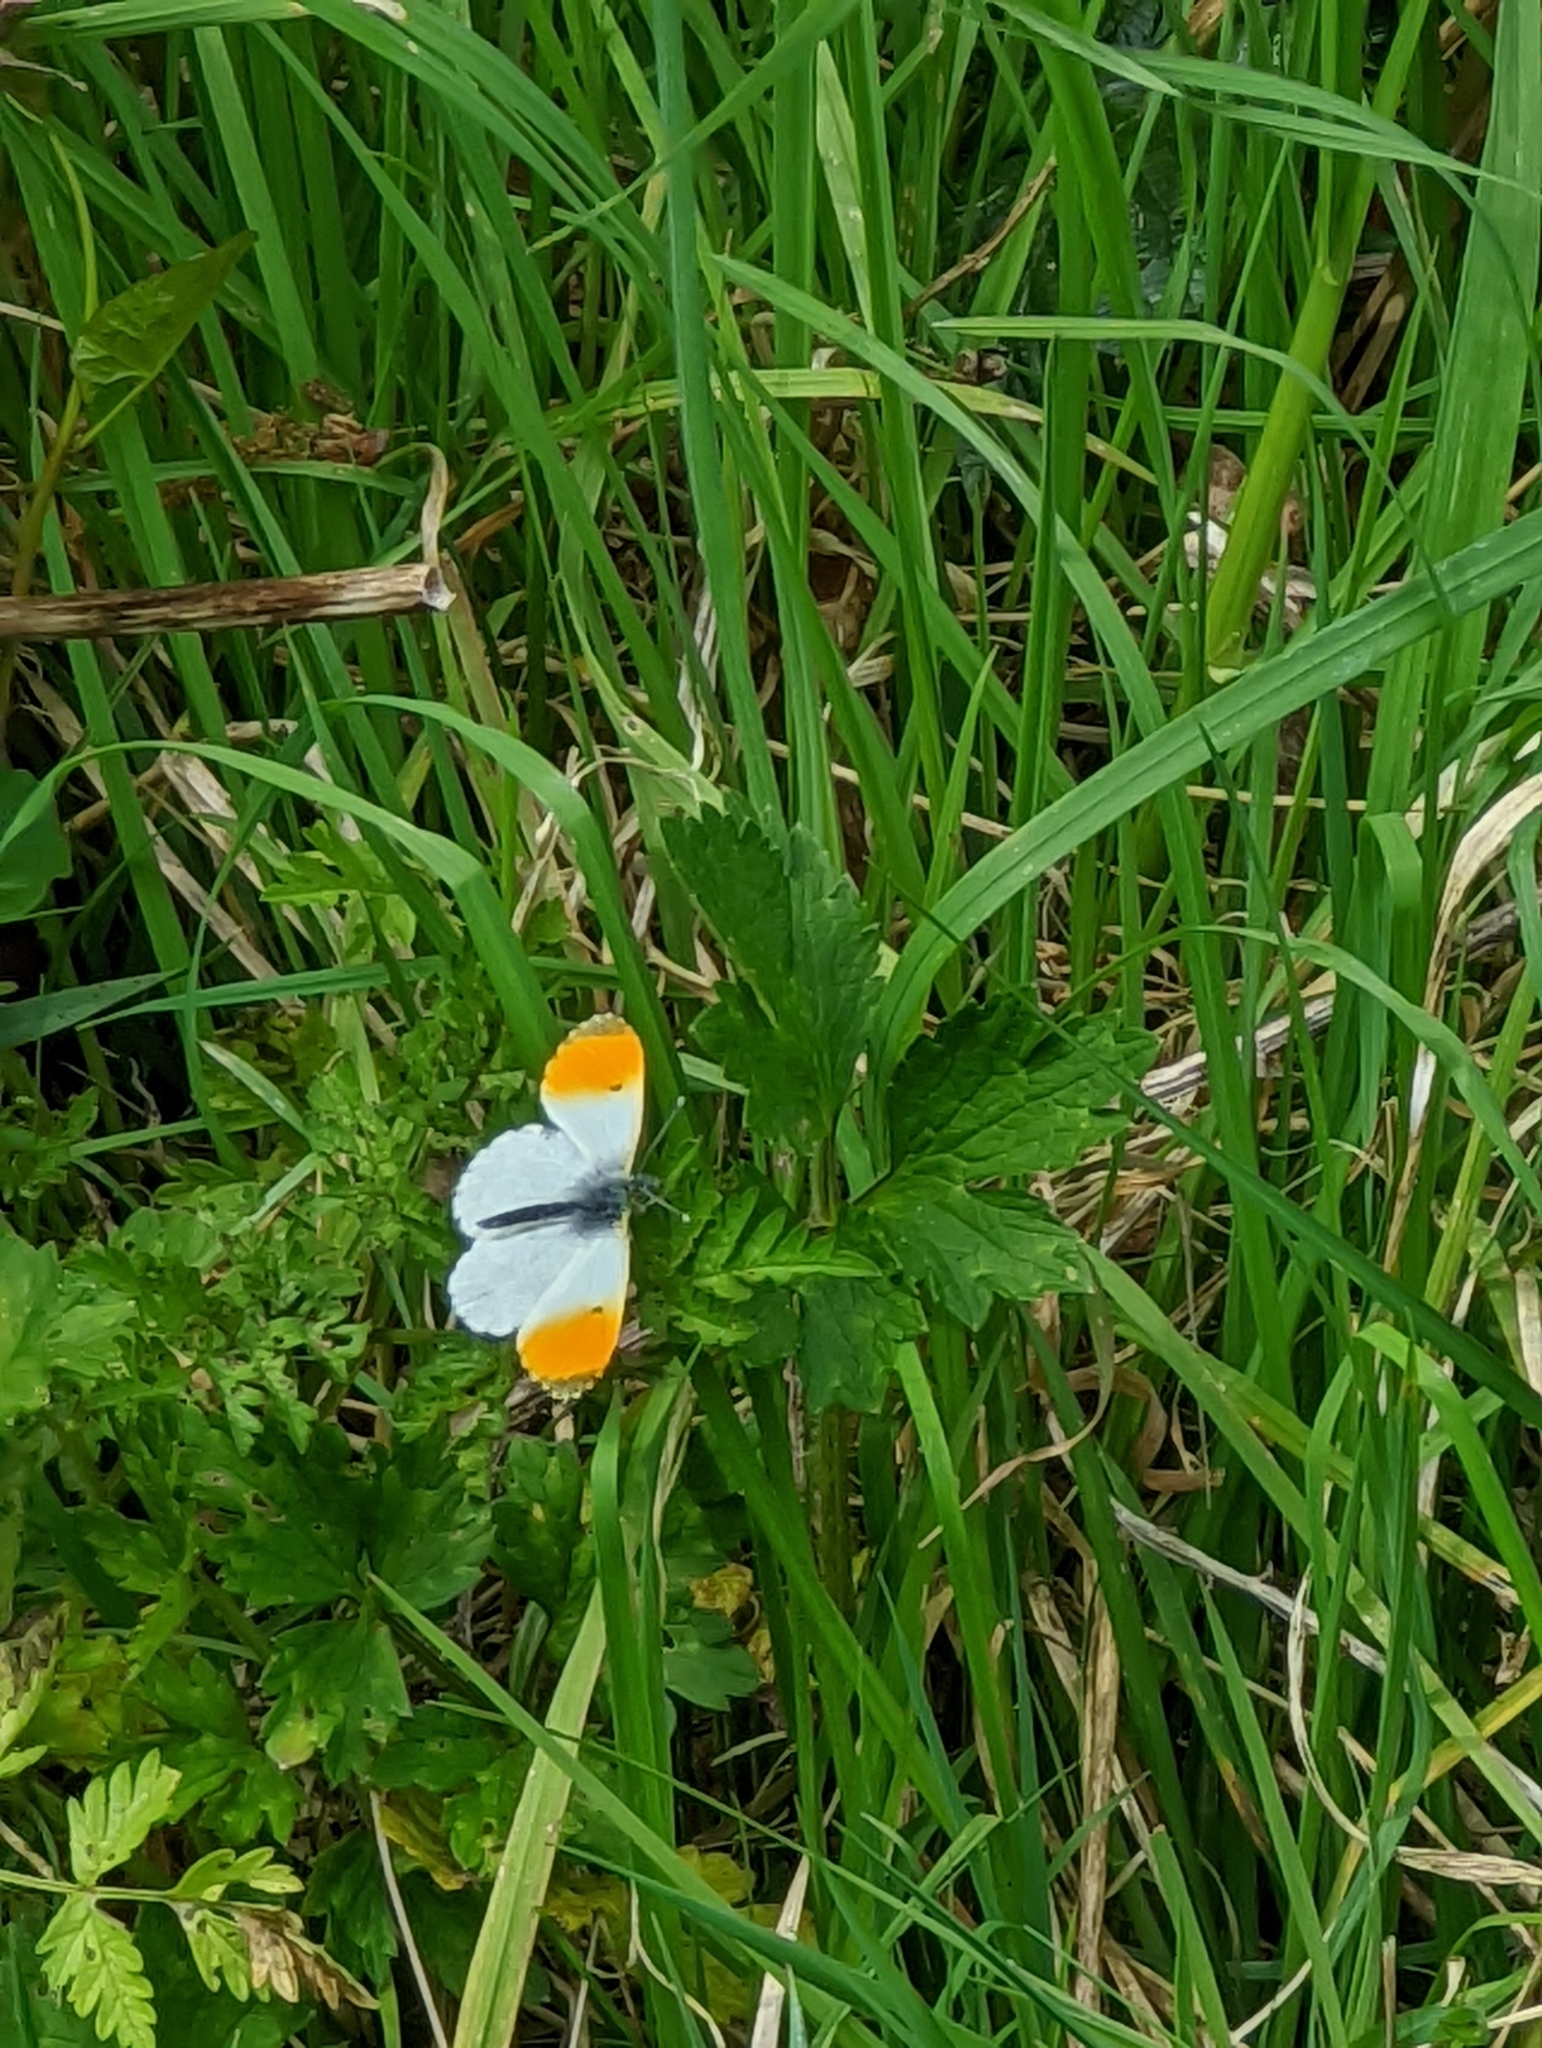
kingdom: Animalia
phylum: Arthropoda
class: Insecta
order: Lepidoptera
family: Pieridae
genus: Anthocharis
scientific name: Anthocharis cardamines
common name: Orange-tip
